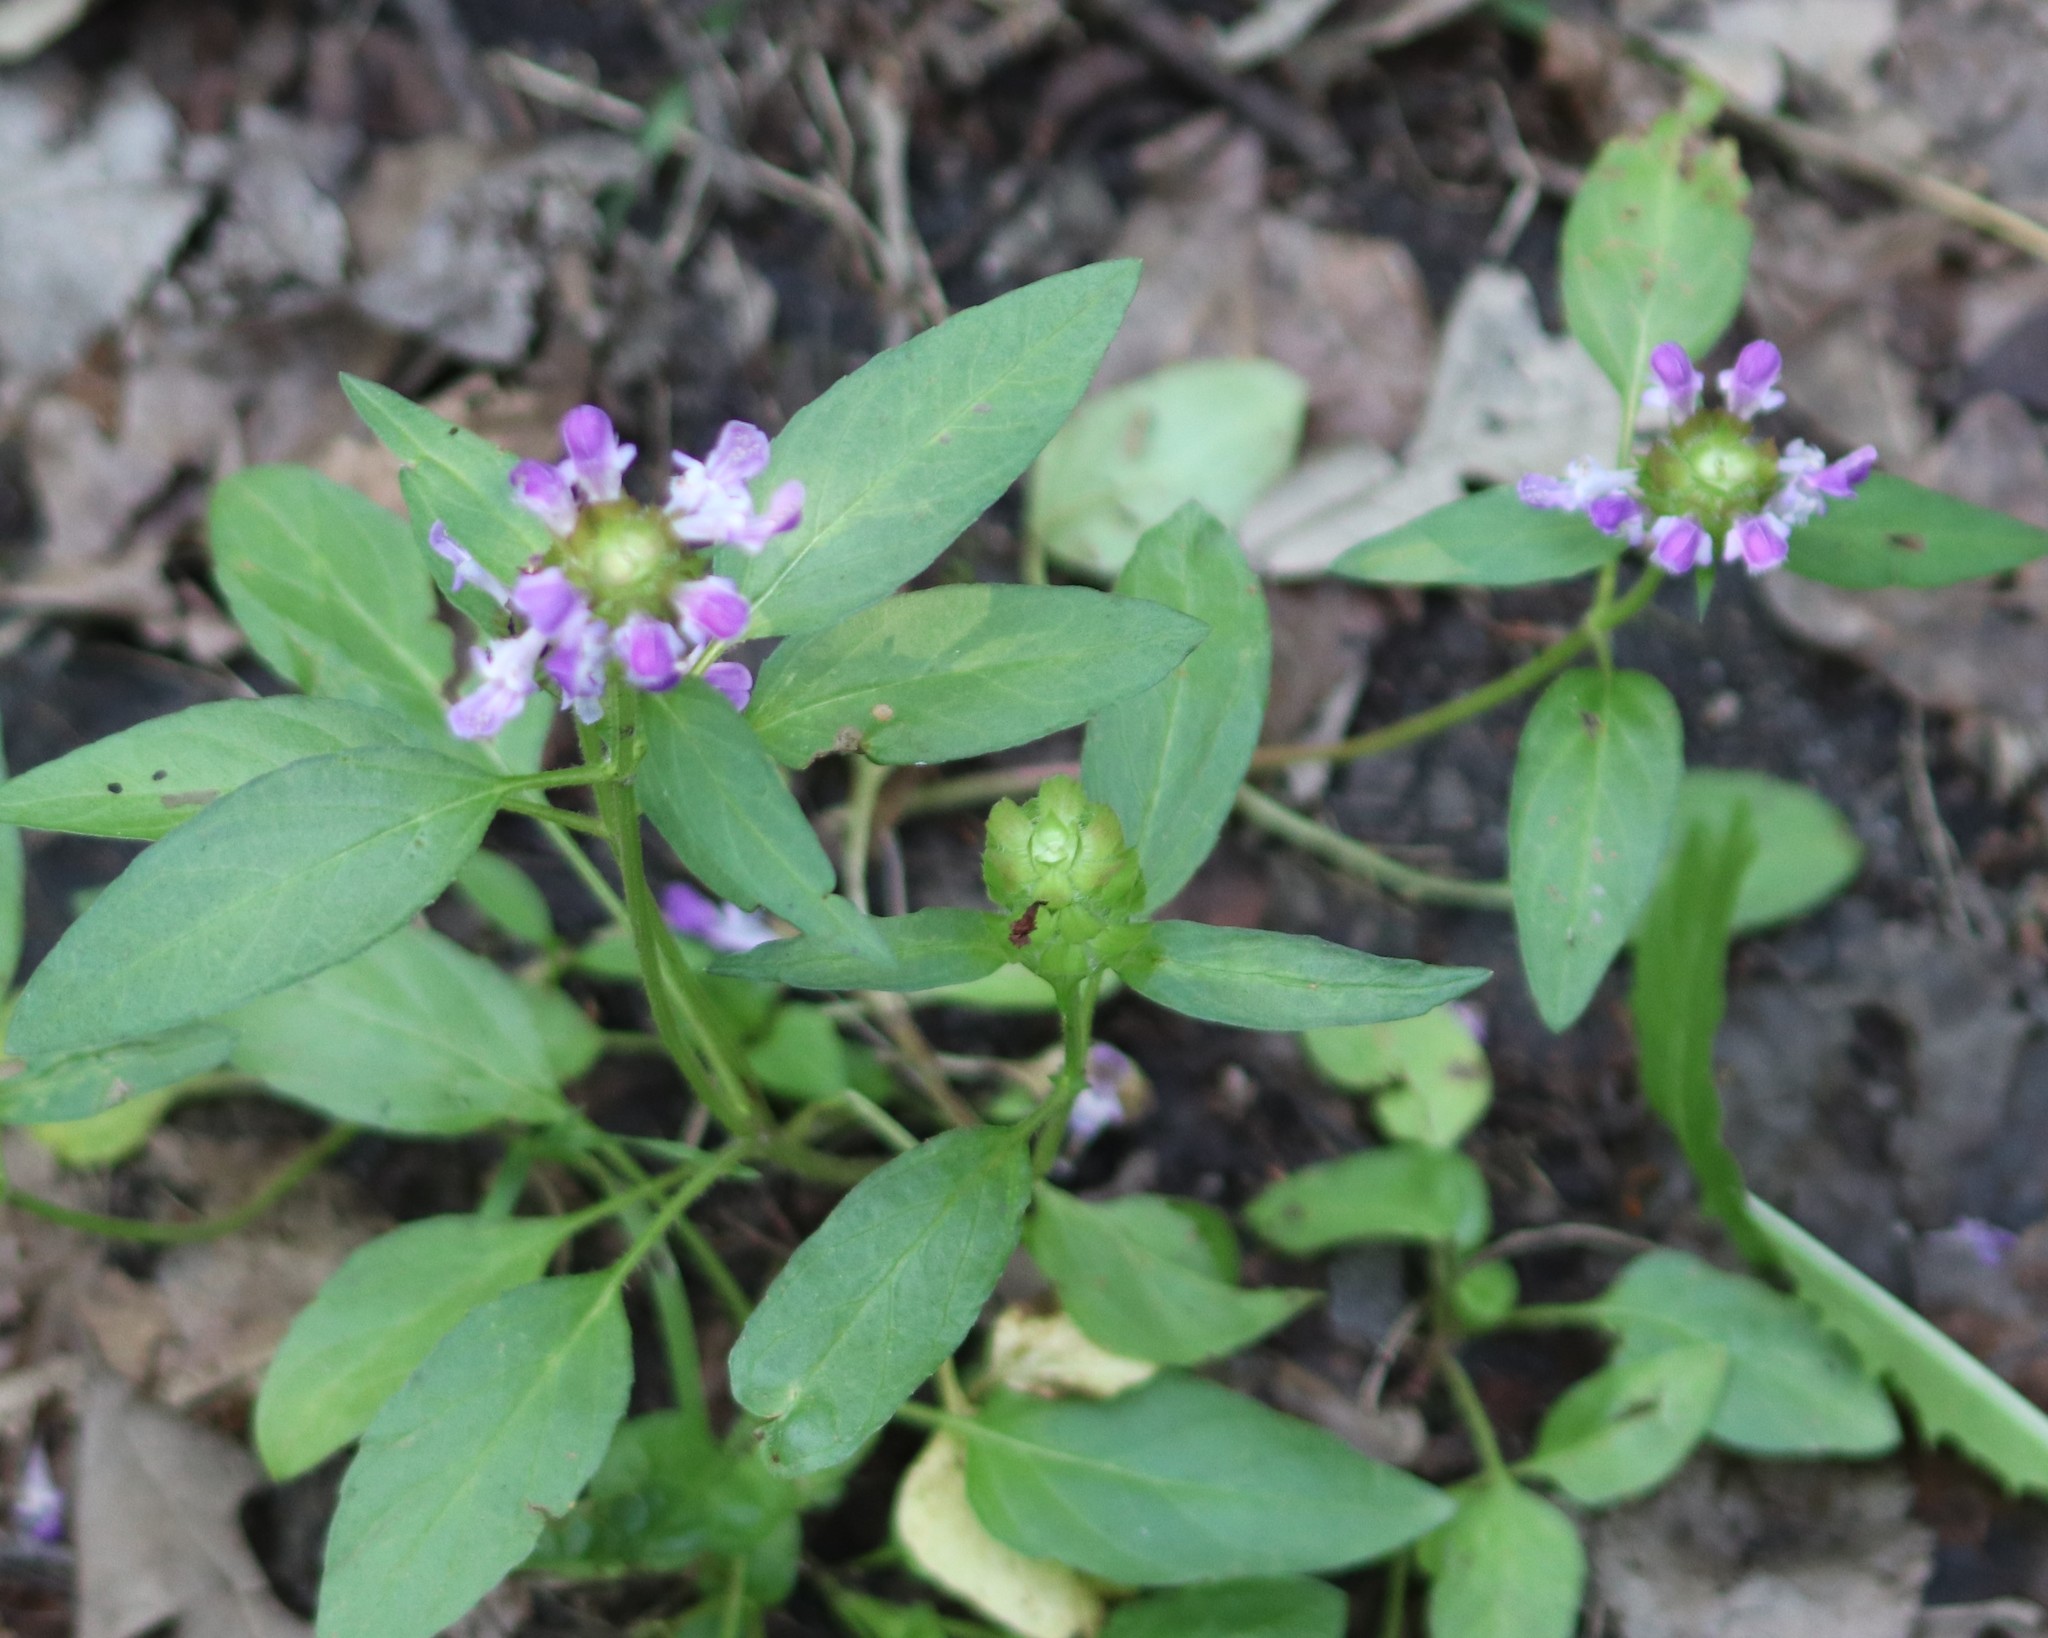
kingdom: Plantae
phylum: Tracheophyta
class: Magnoliopsida
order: Lamiales
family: Lamiaceae
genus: Prunella
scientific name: Prunella vulgaris
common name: Heal-all
